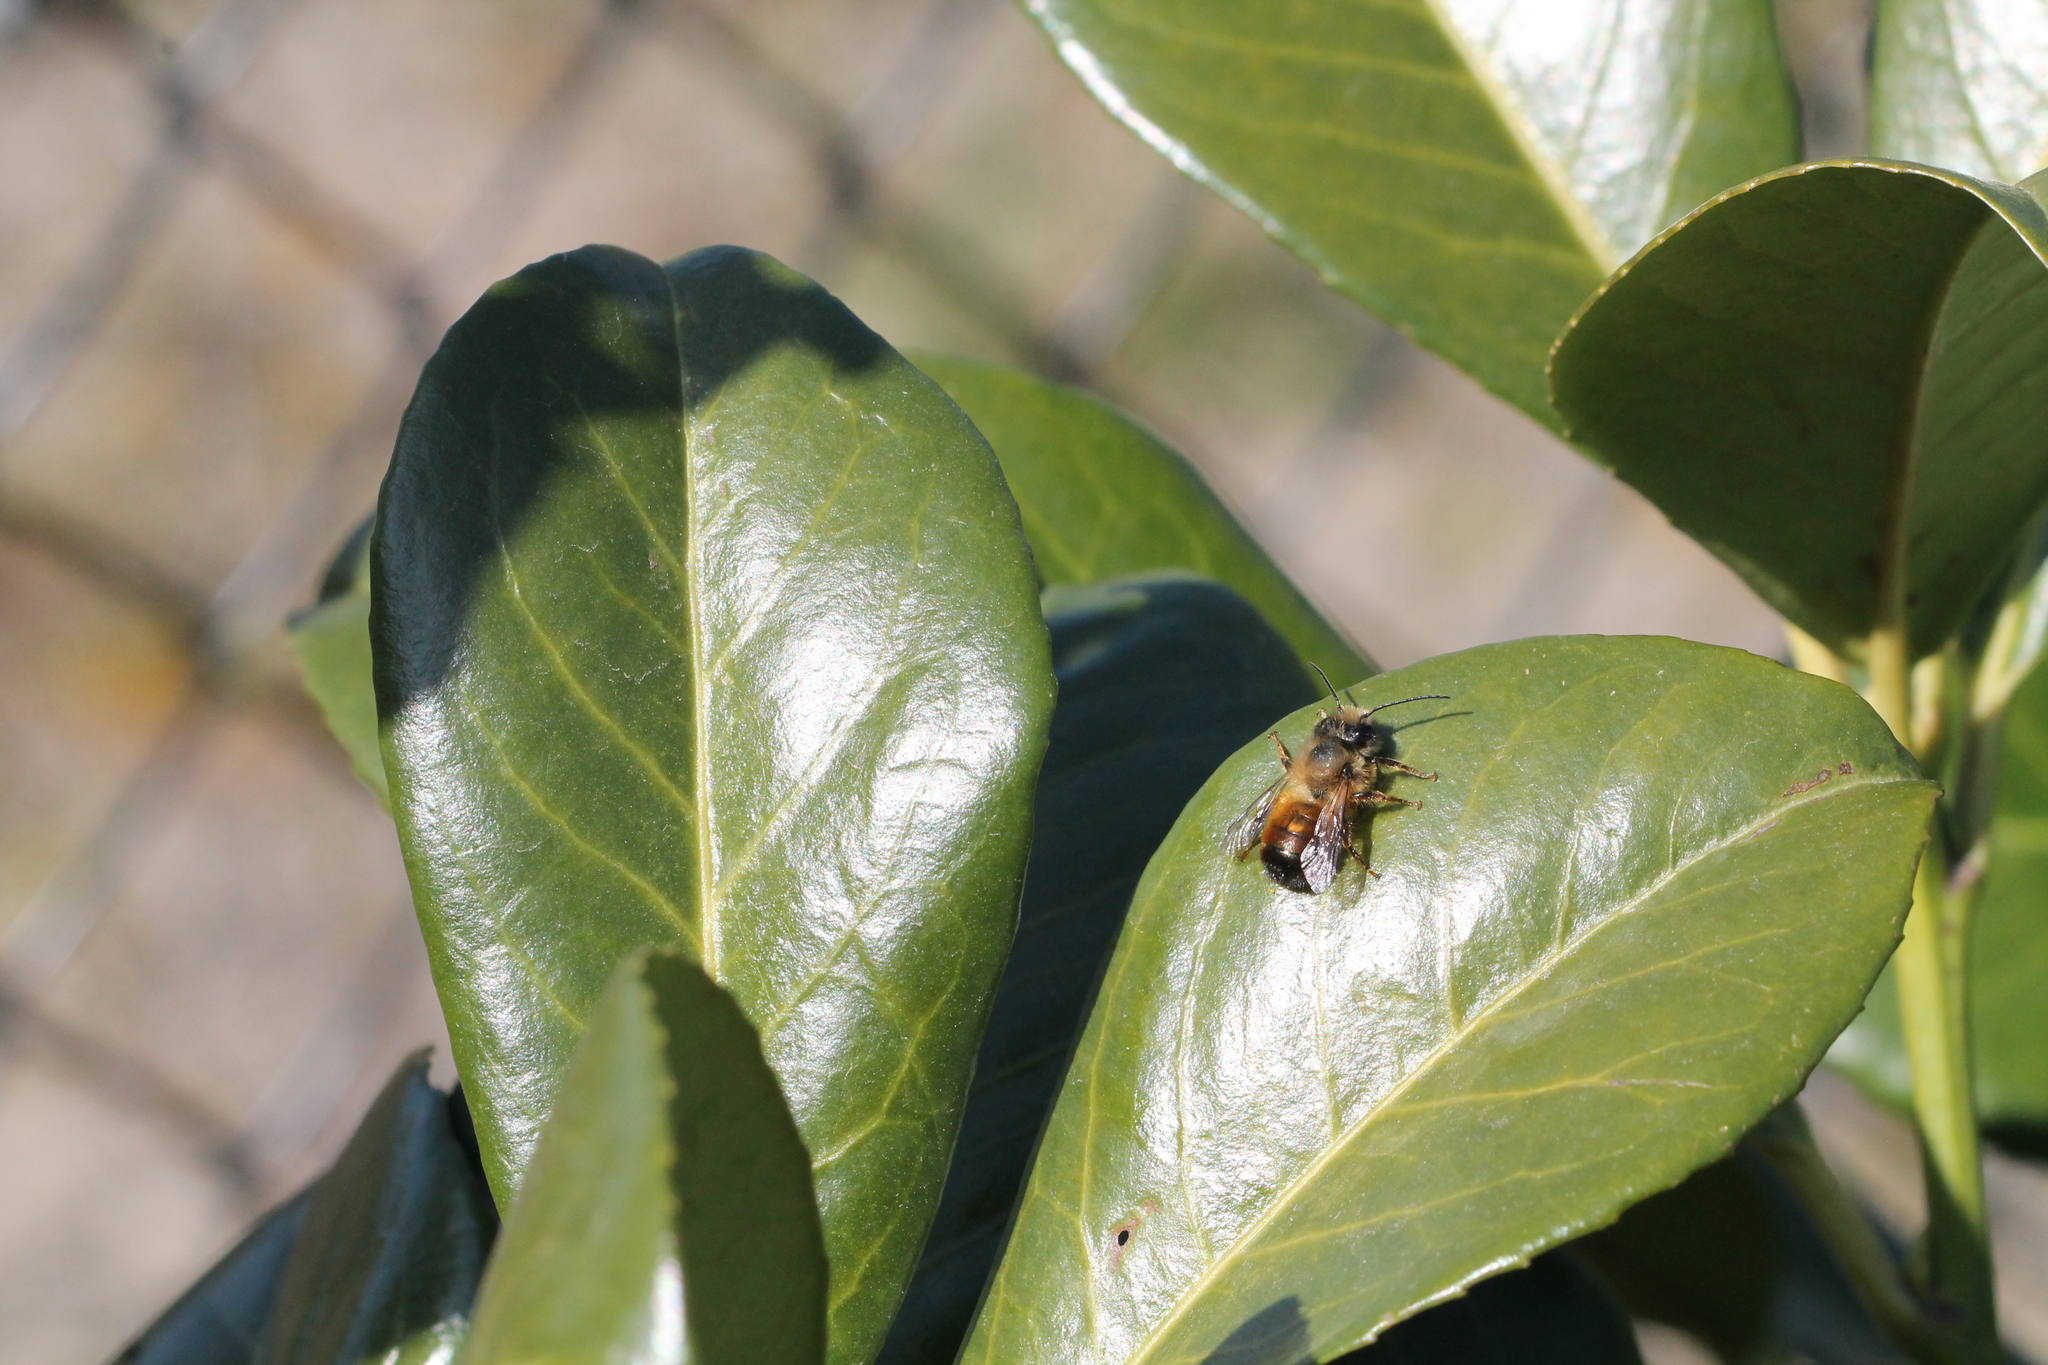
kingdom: Animalia
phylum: Arthropoda
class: Insecta
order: Hymenoptera
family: Megachilidae
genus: Osmia
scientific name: Osmia bicornis
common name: Red mason bee
